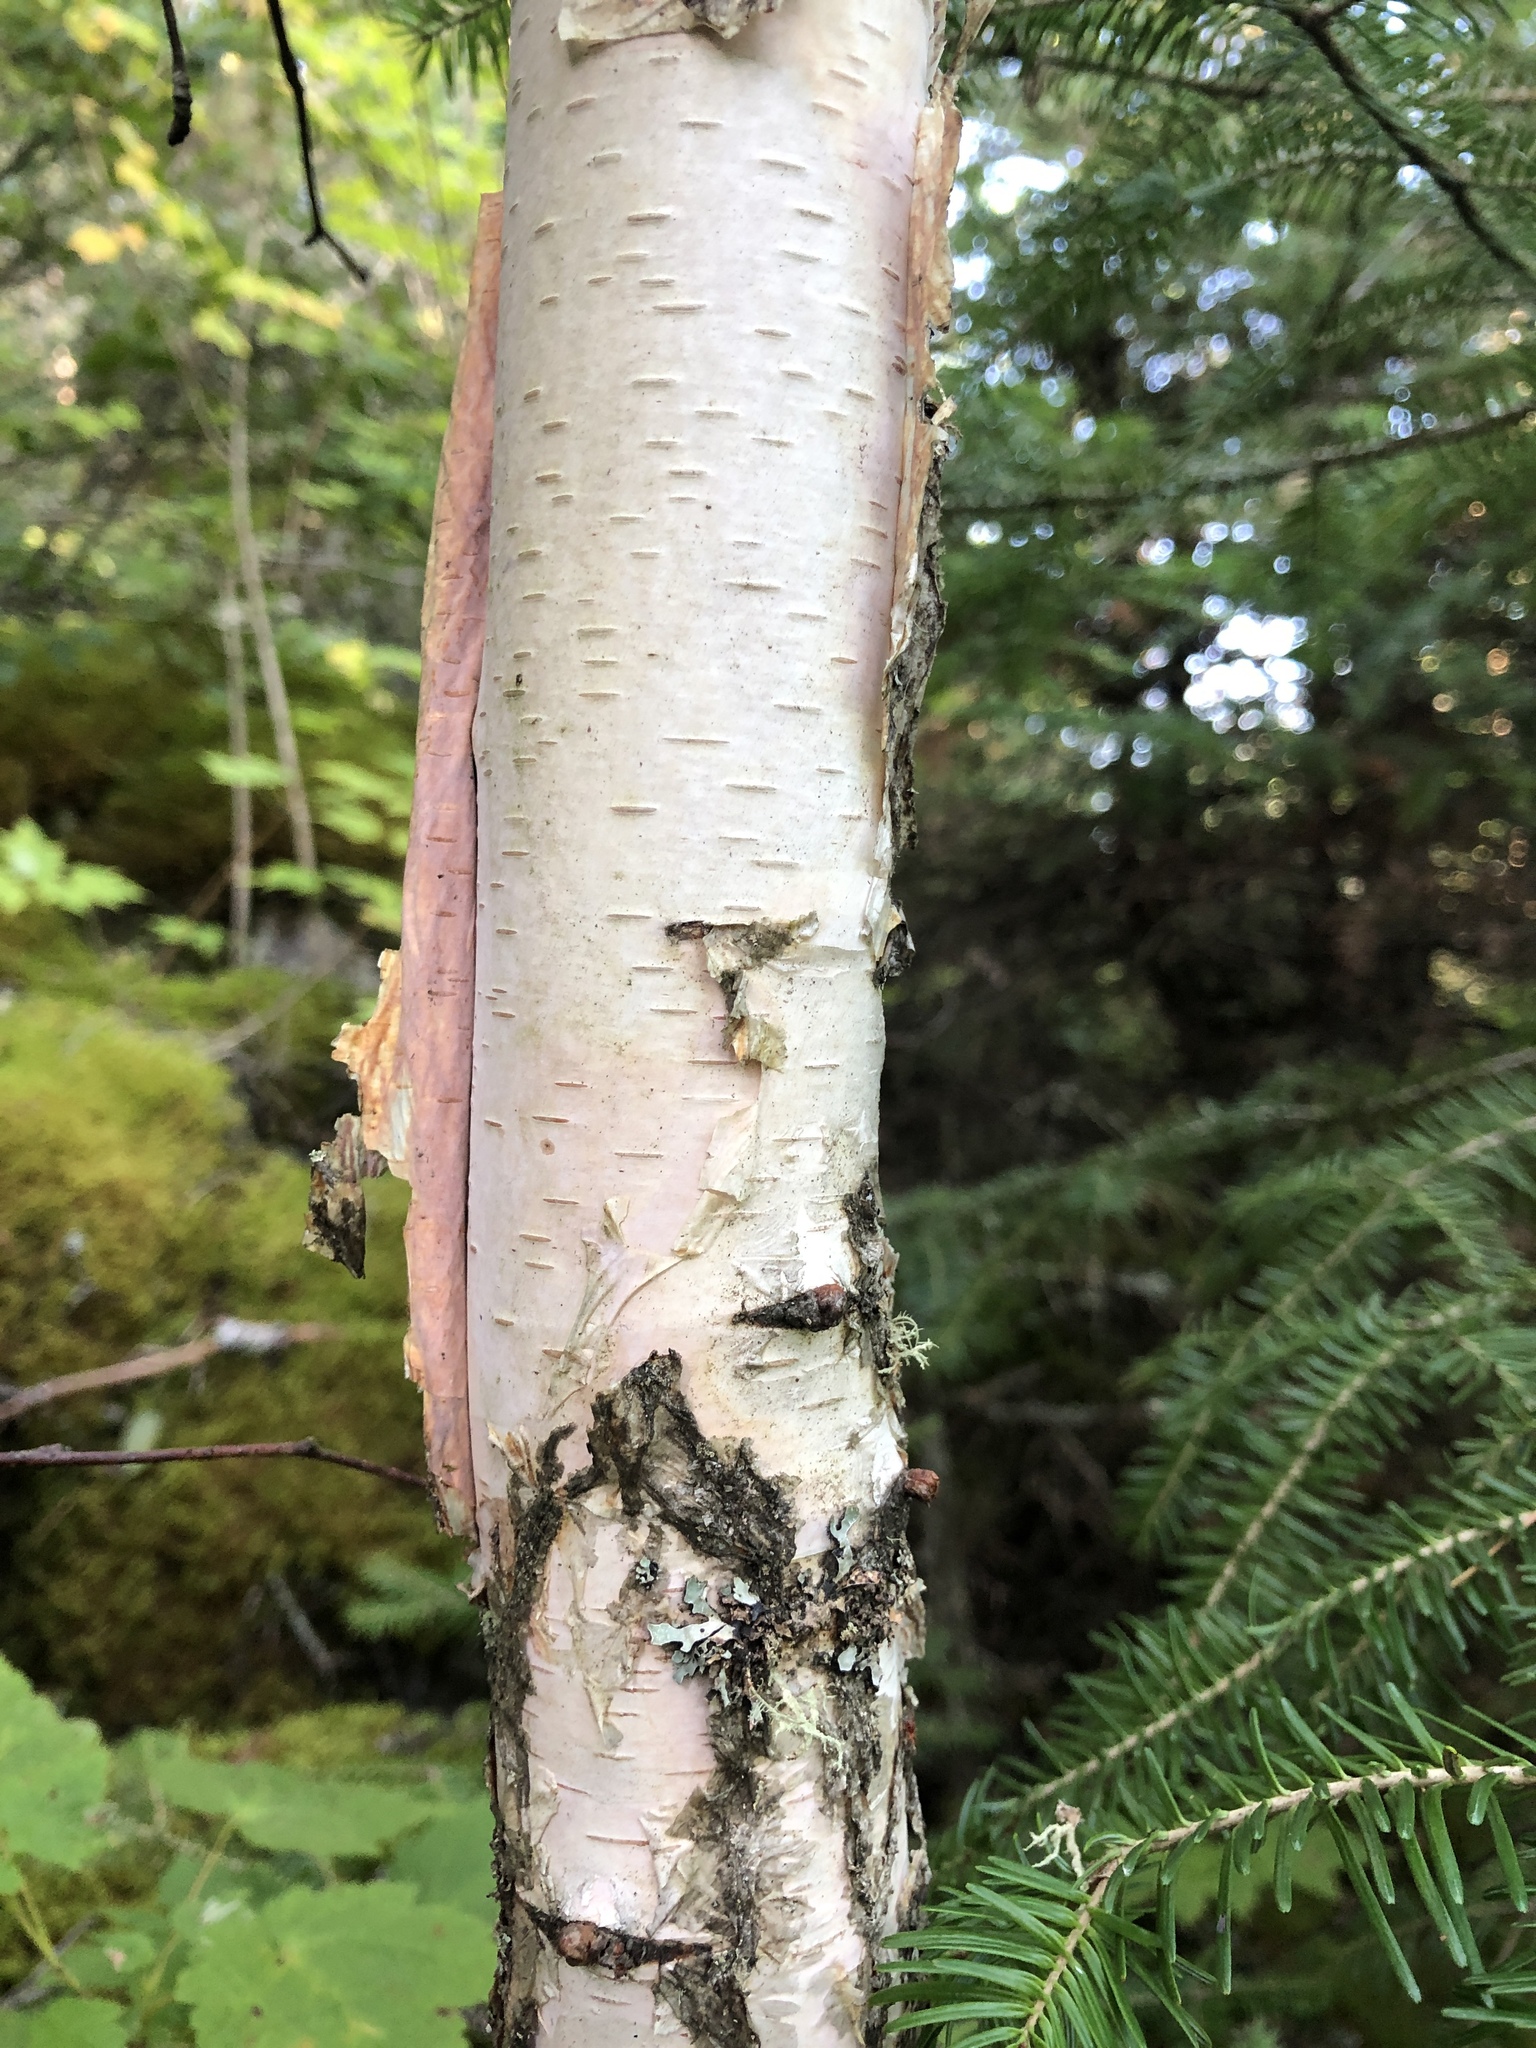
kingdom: Plantae
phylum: Tracheophyta
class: Magnoliopsida
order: Fagales
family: Betulaceae
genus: Betula
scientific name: Betula papyrifera
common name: Paper birch
